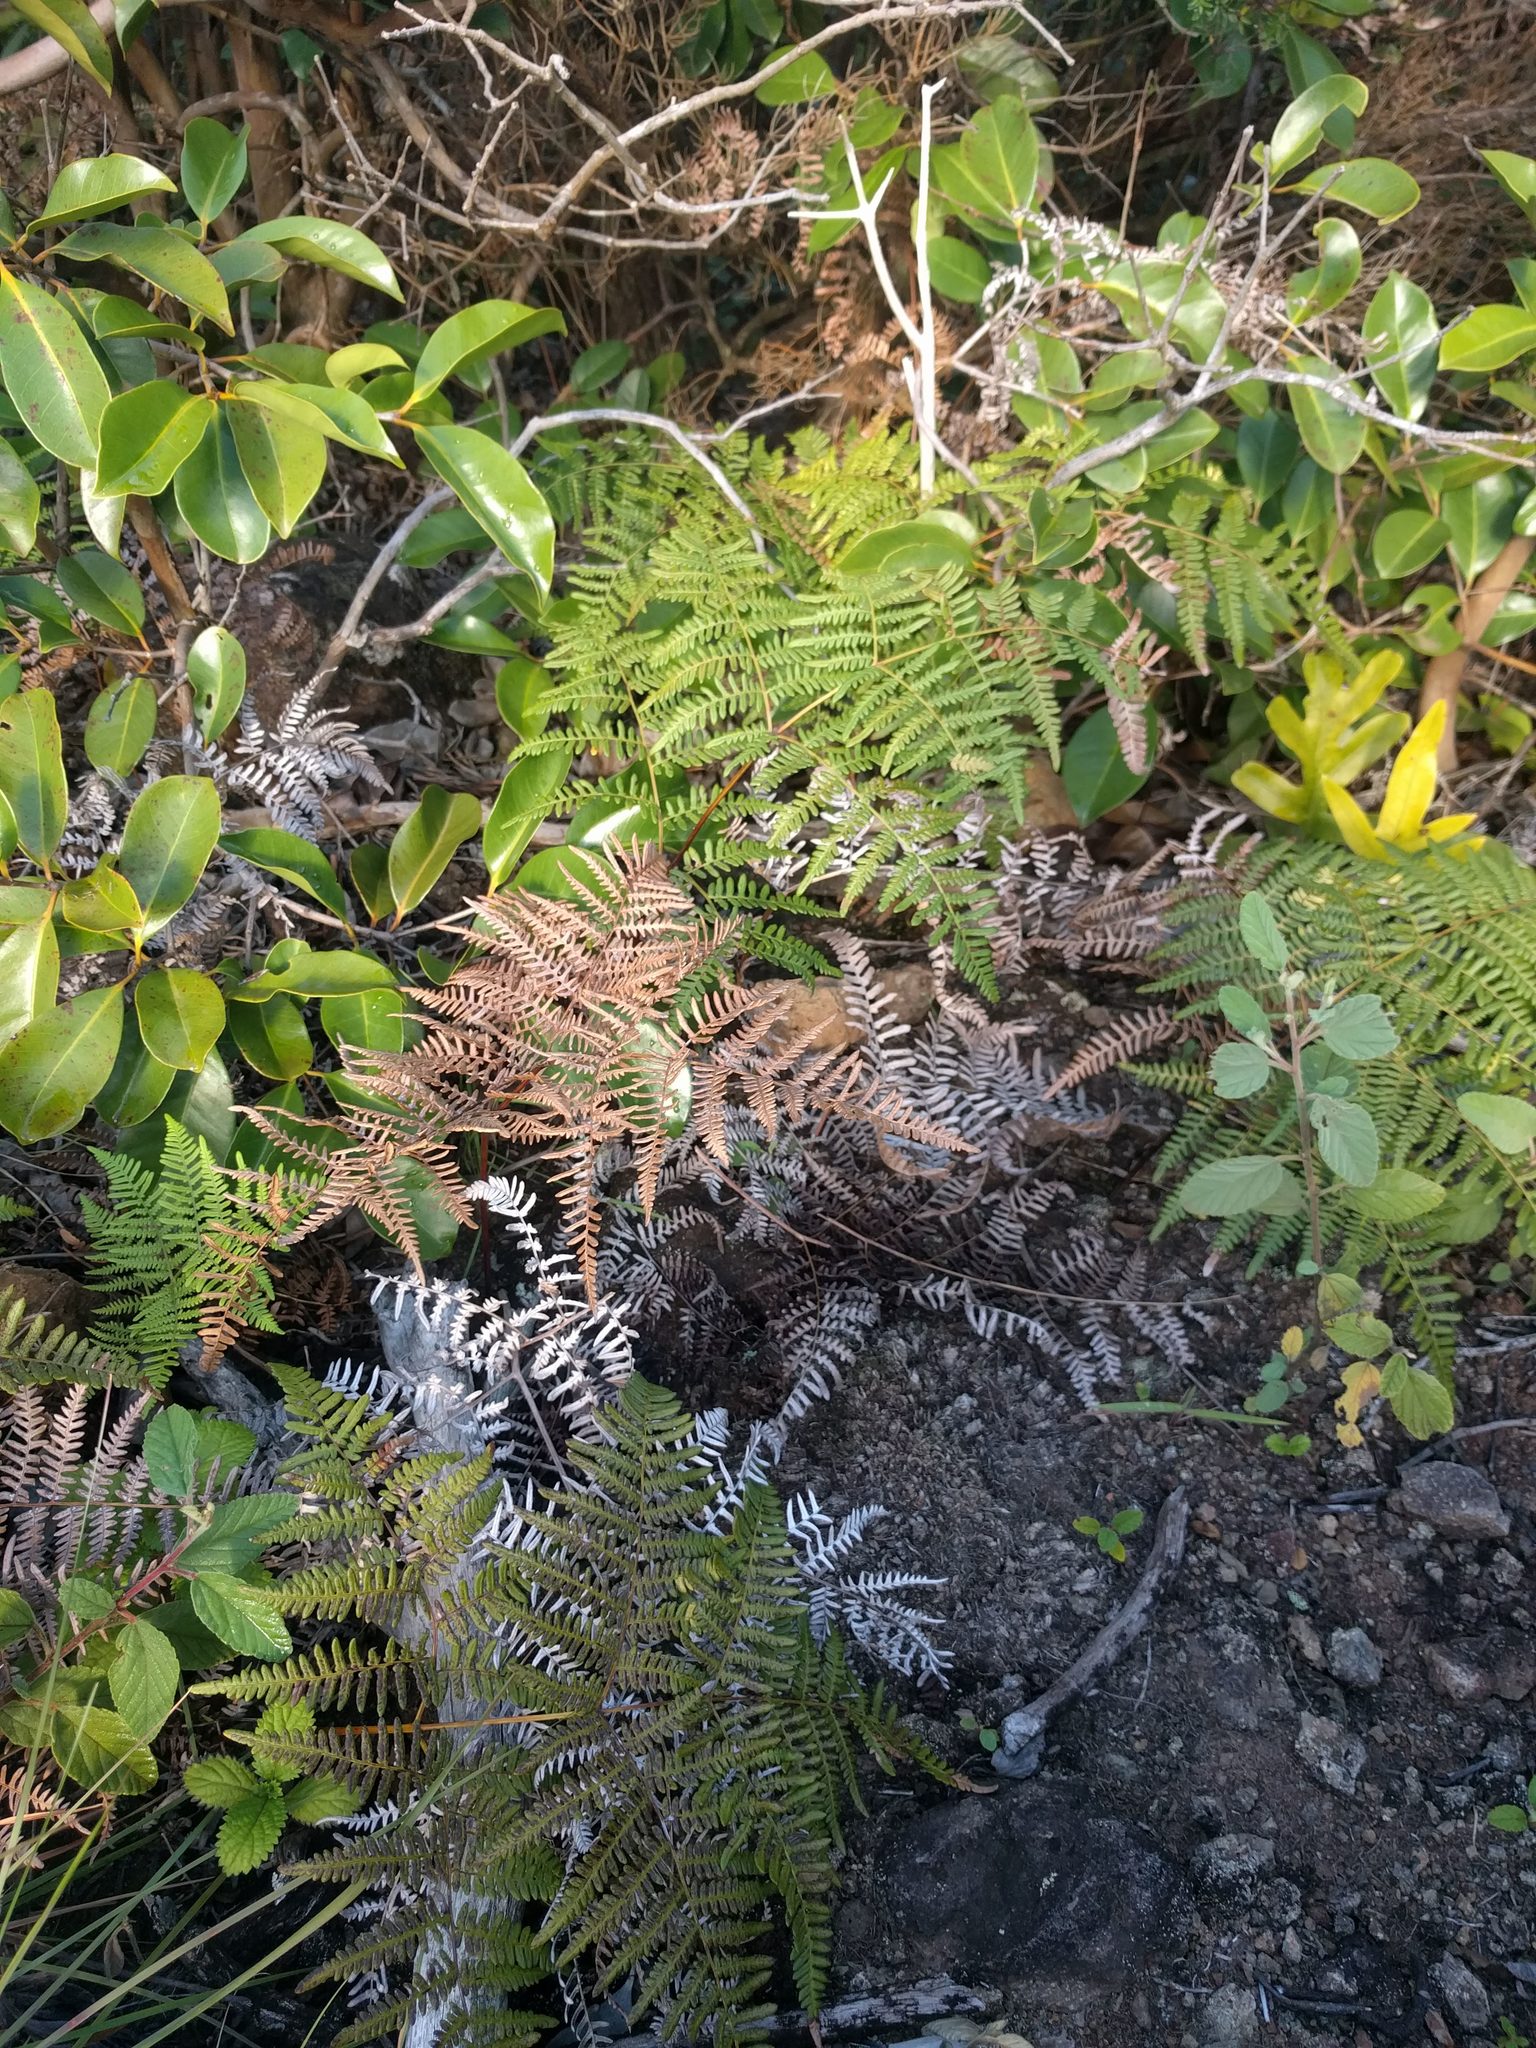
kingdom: Plantae
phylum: Tracheophyta
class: Polypodiopsida
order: Polypodiales
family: Dennstaedtiaceae
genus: Pteridium
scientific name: Pteridium aquilinum
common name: Bracken
